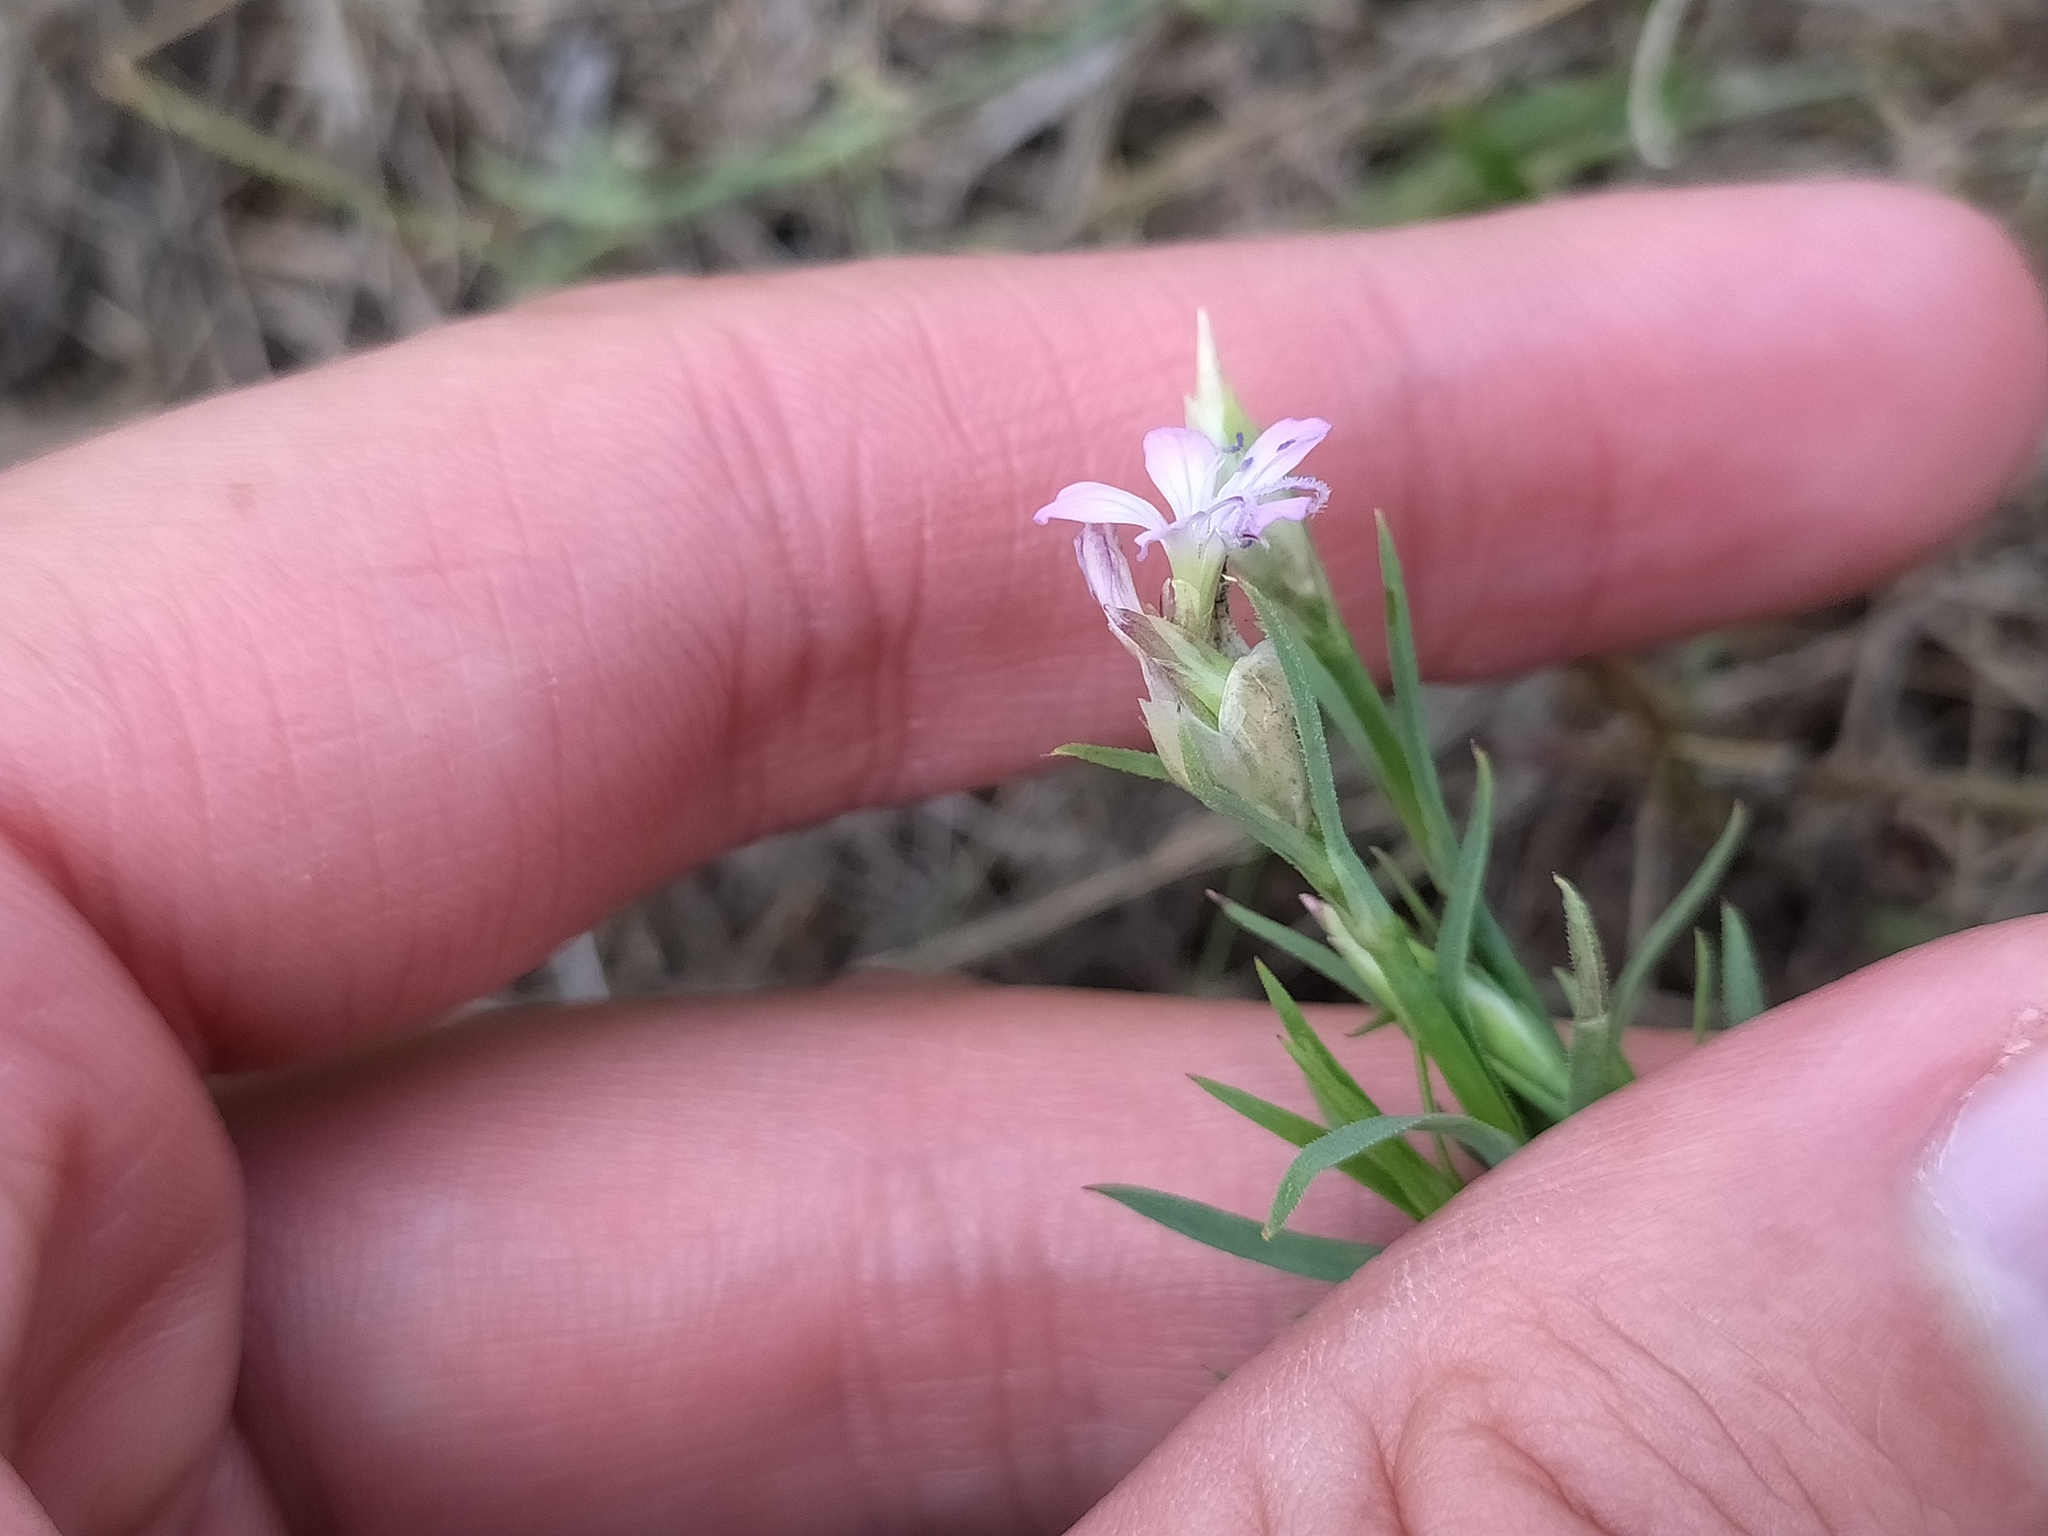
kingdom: Plantae
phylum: Tracheophyta
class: Magnoliopsida
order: Caryophyllales
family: Caryophyllaceae
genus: Petrorhagia
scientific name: Petrorhagia prolifera
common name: Proliferous pink
